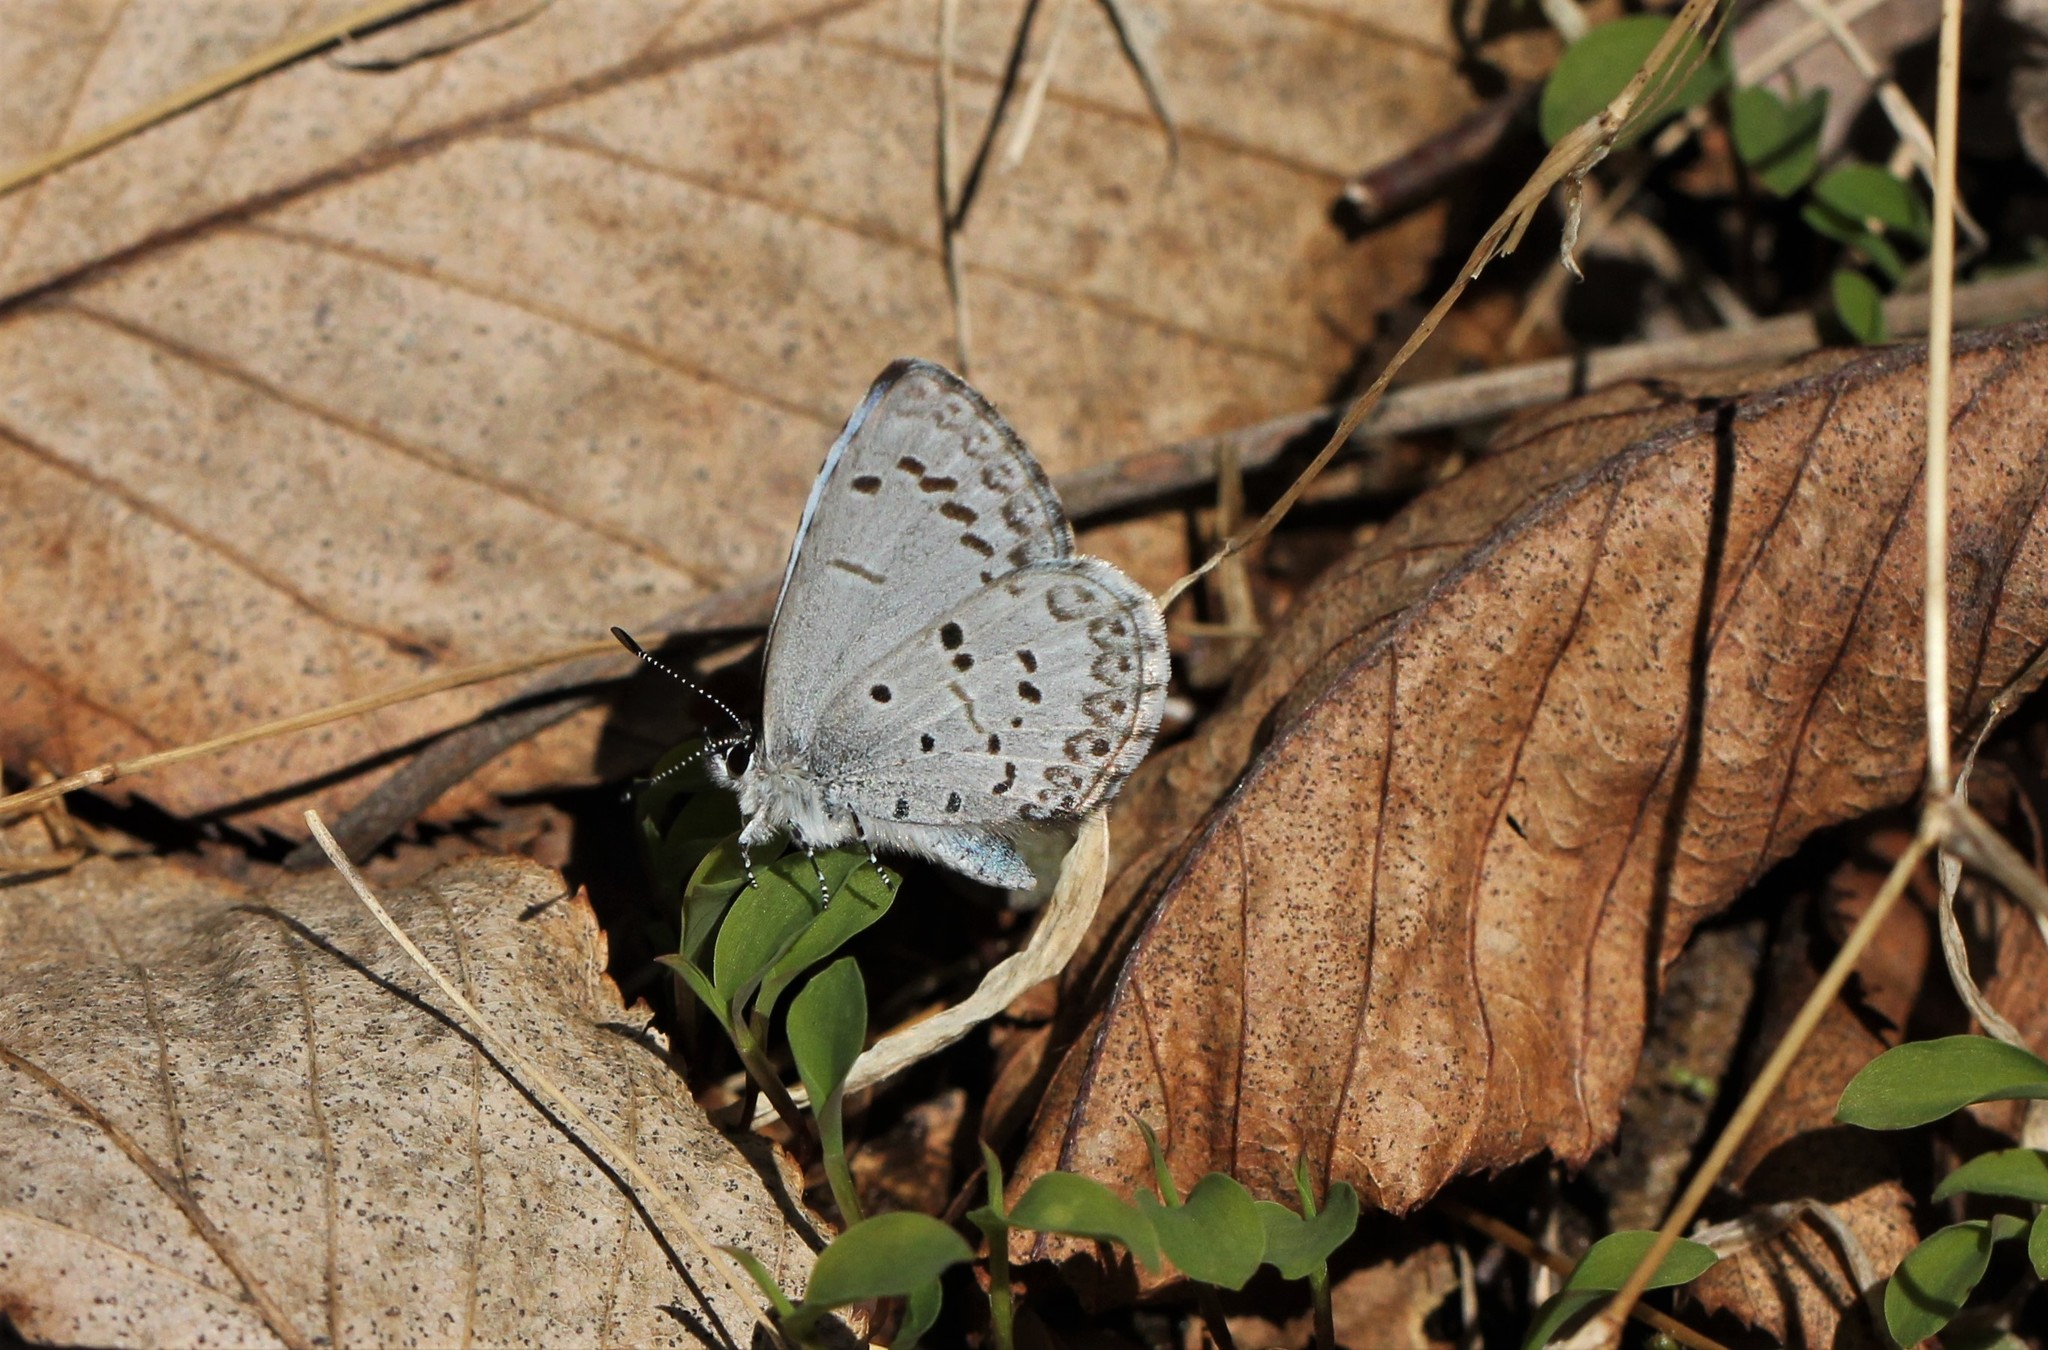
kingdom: Animalia
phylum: Arthropoda
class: Insecta
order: Lepidoptera
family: Lycaenidae
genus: Cyaniris
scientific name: Cyaniris neglecta
